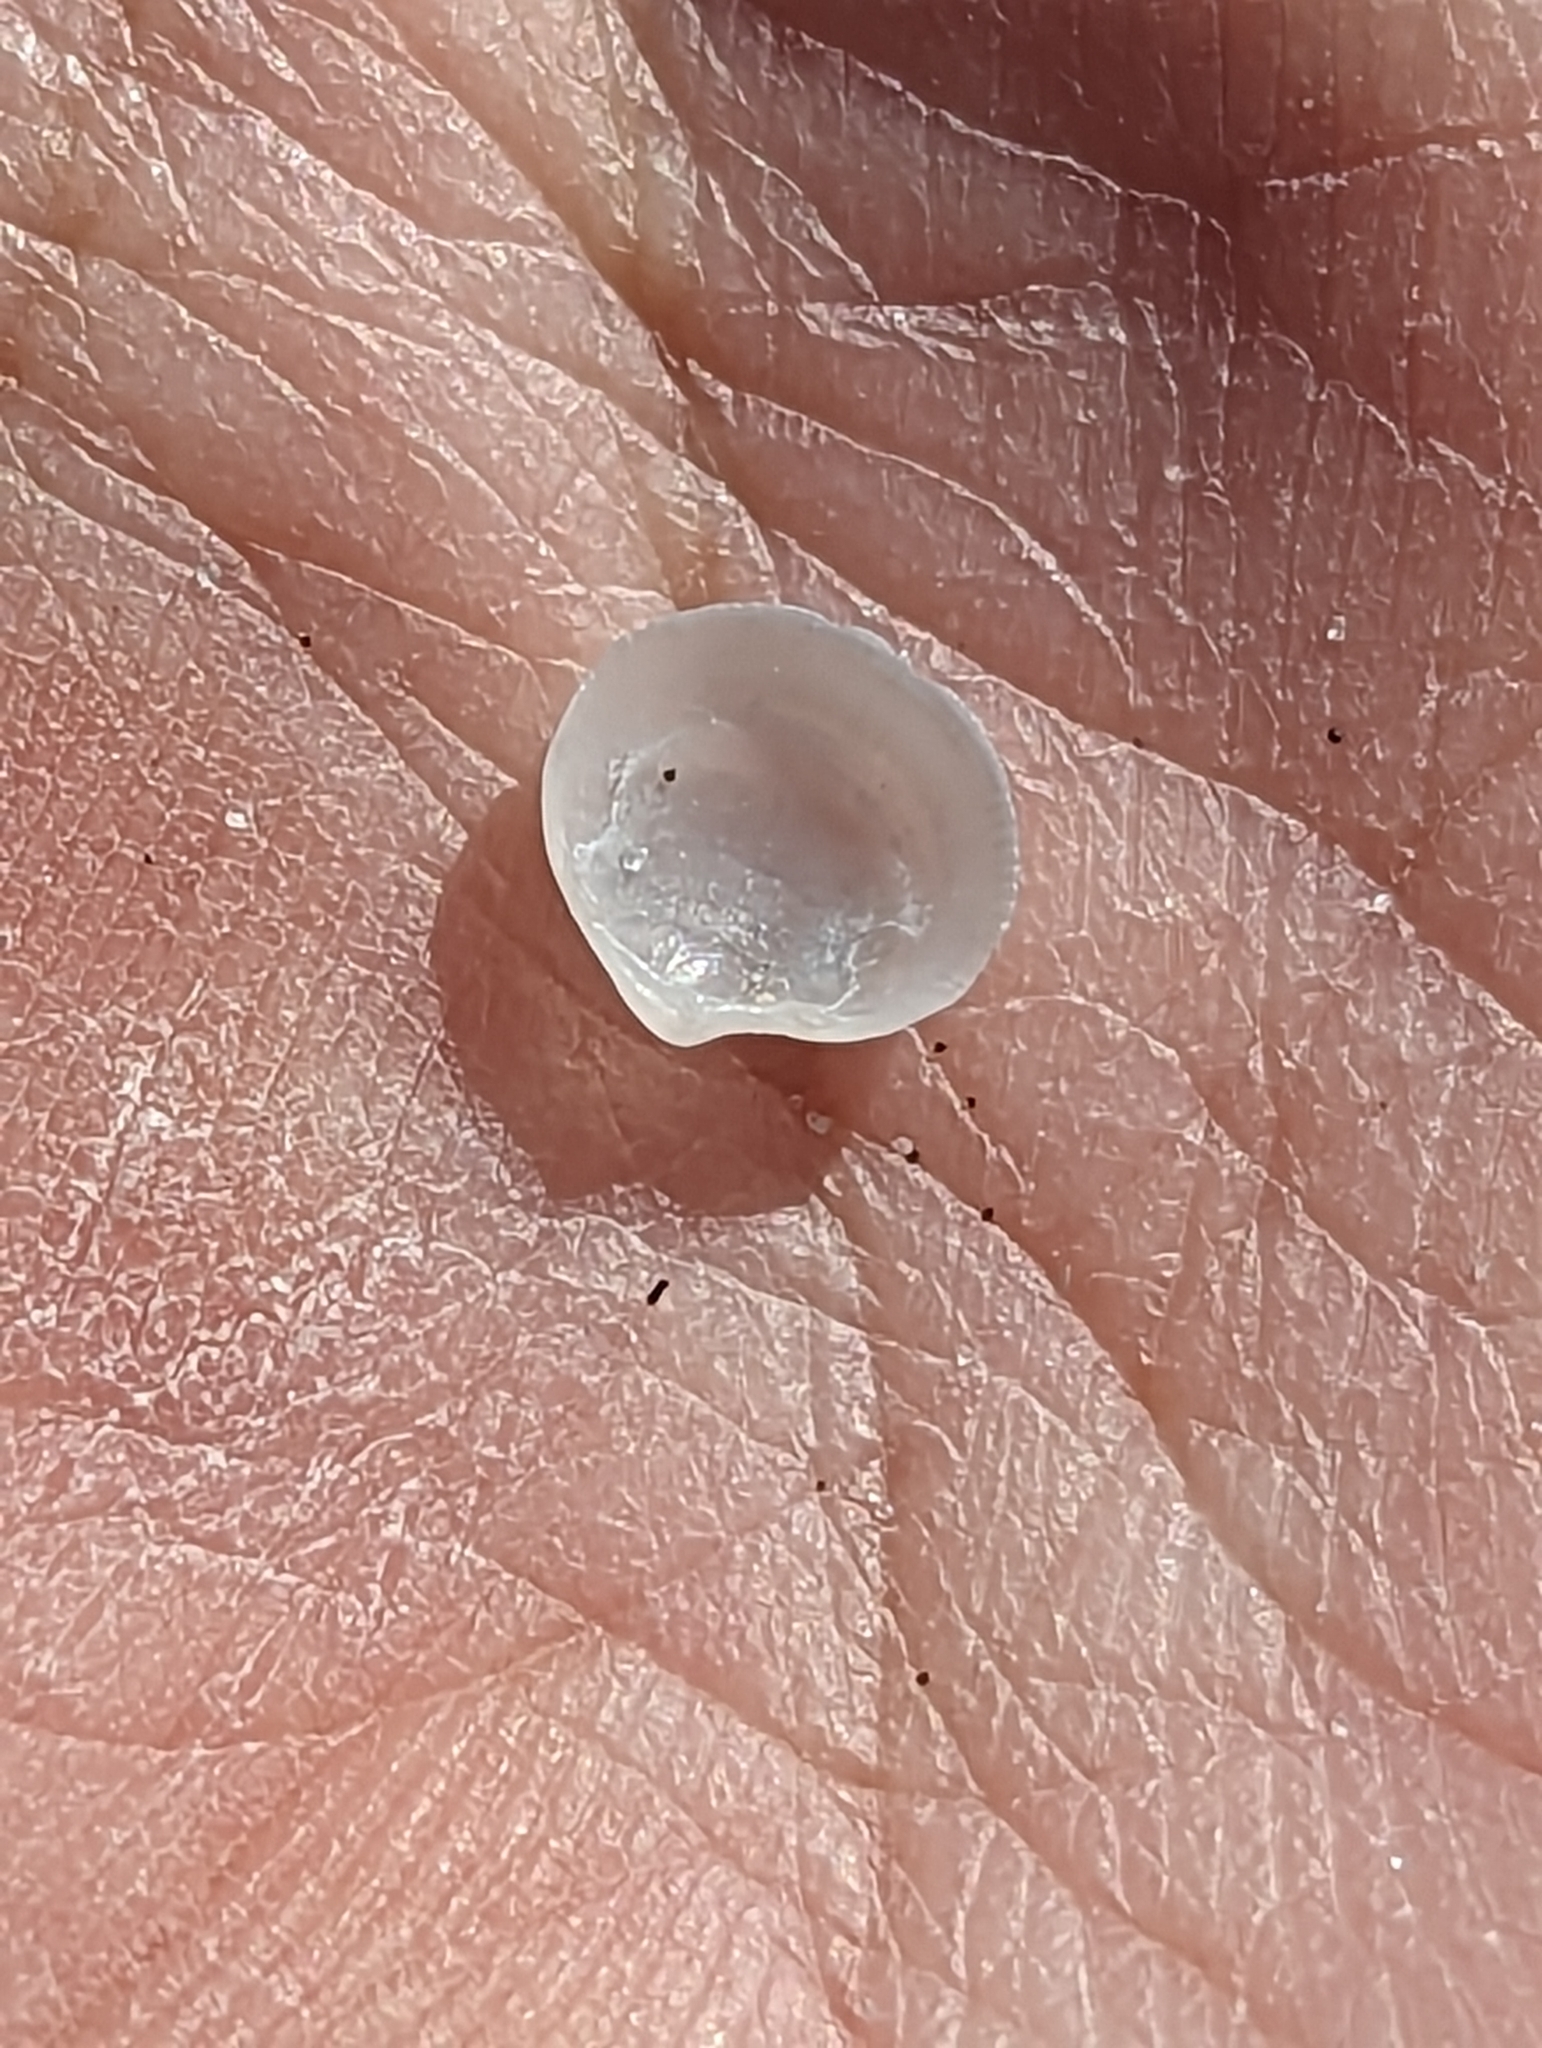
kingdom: Animalia
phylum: Mollusca
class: Bivalvia
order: Lucinida
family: Lucinidae
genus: Parvilucina
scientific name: Parvilucina crenella
